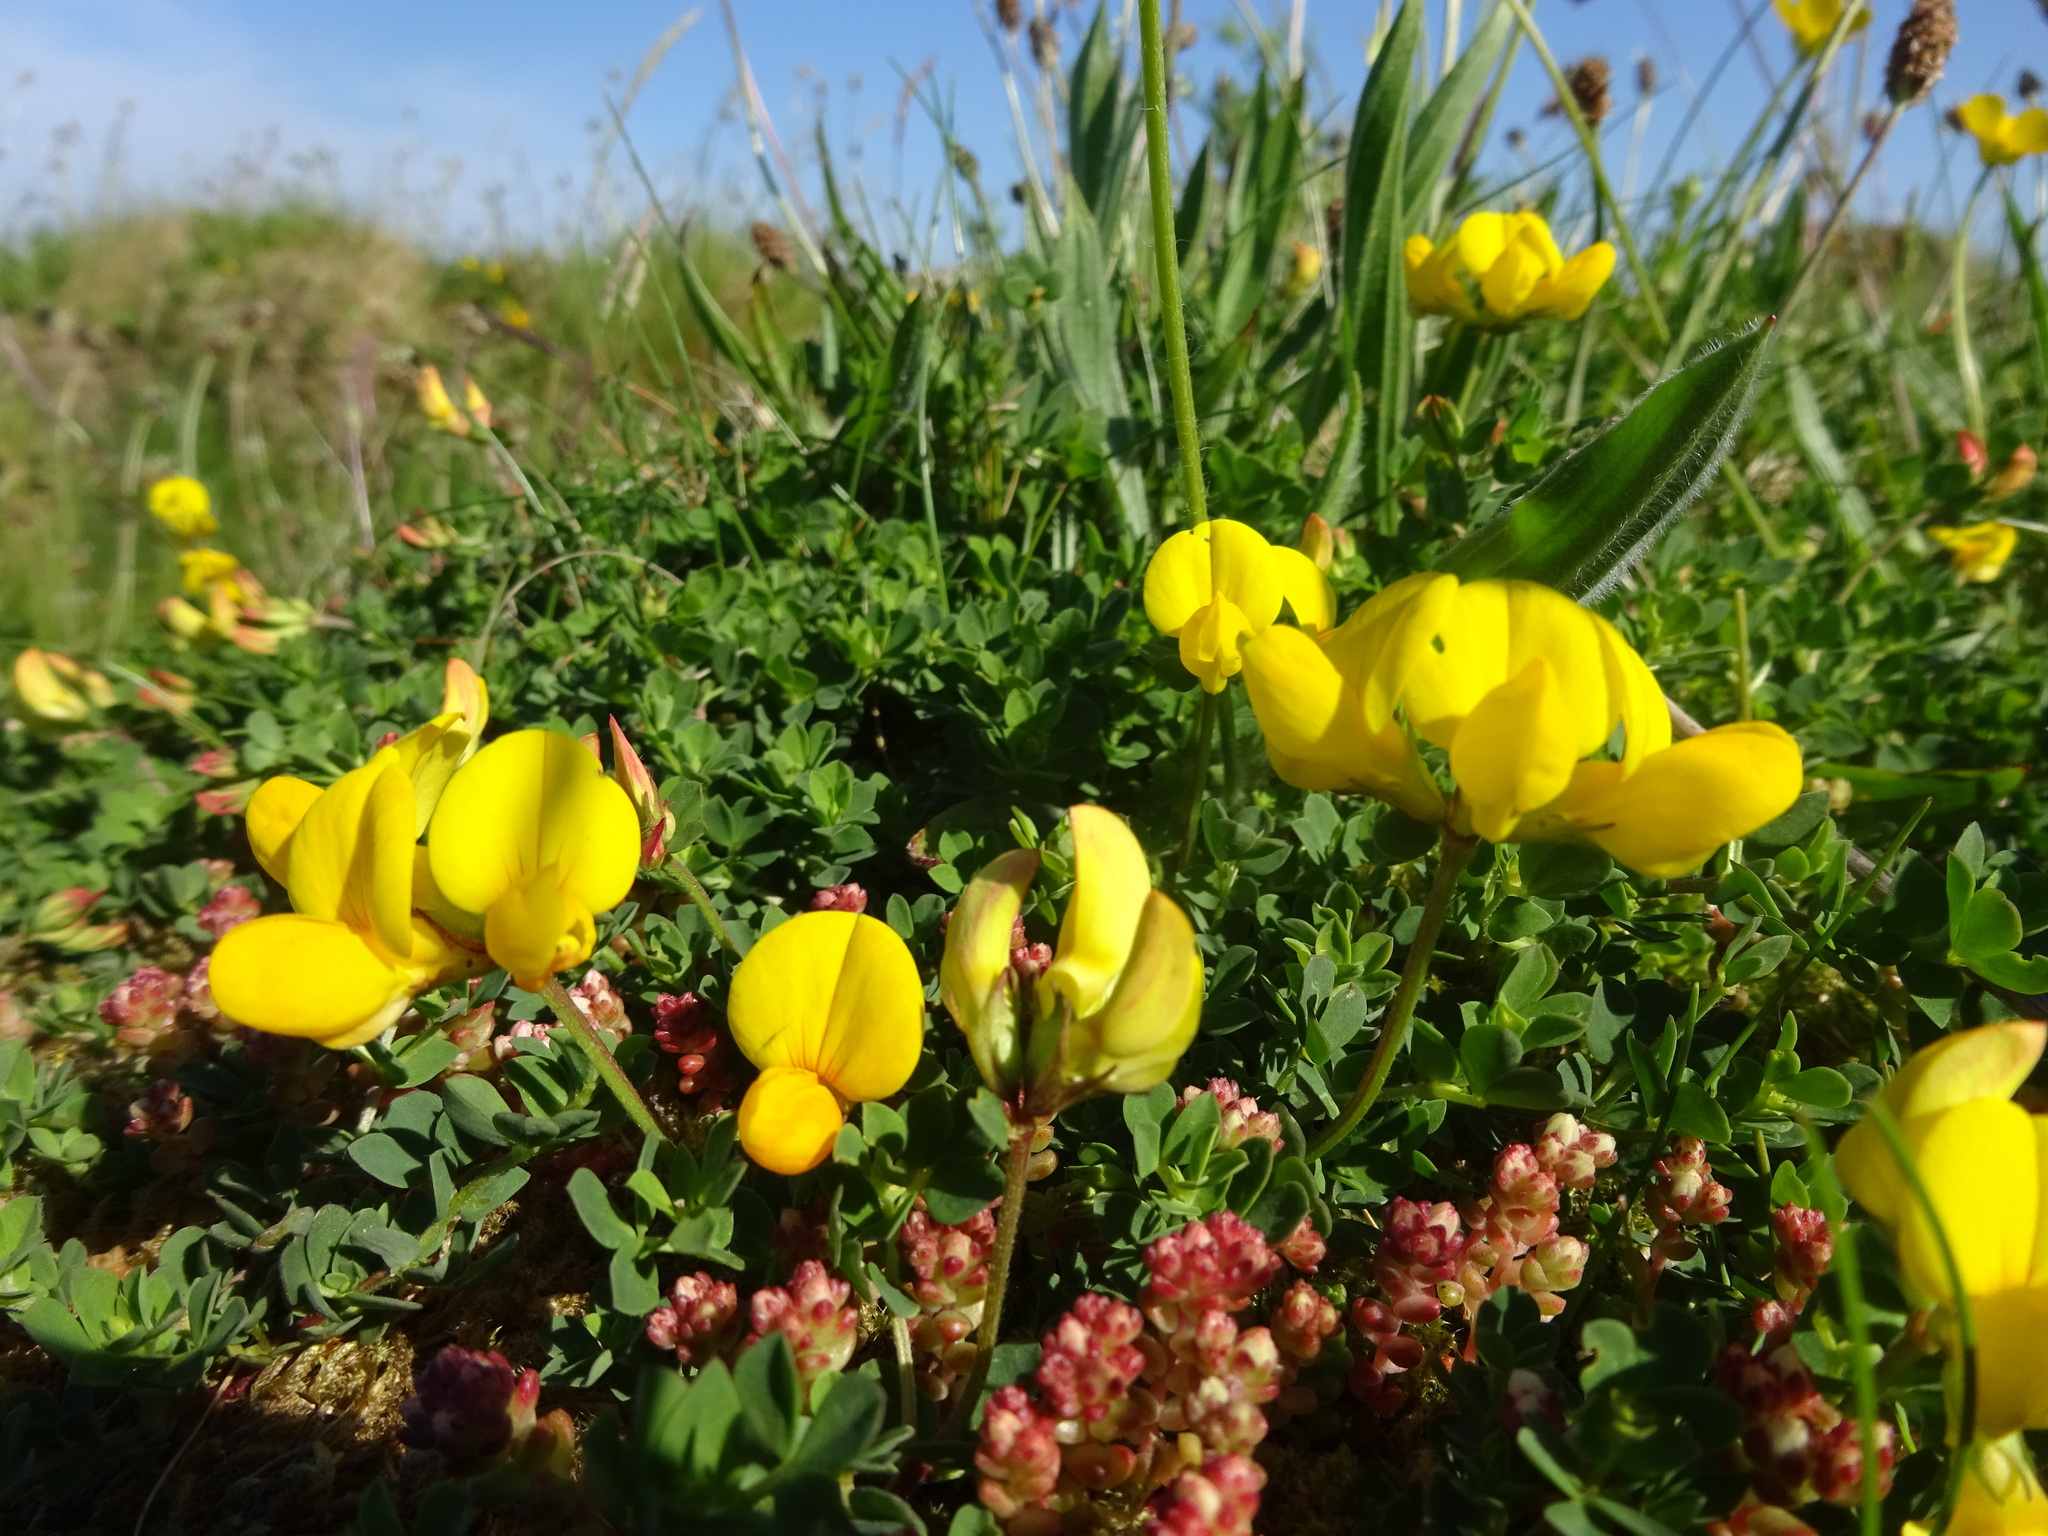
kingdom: Plantae
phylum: Tracheophyta
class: Magnoliopsida
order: Fabales
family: Fabaceae
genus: Lotus
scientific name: Lotus corniculatus
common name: Common bird's-foot-trefoil
